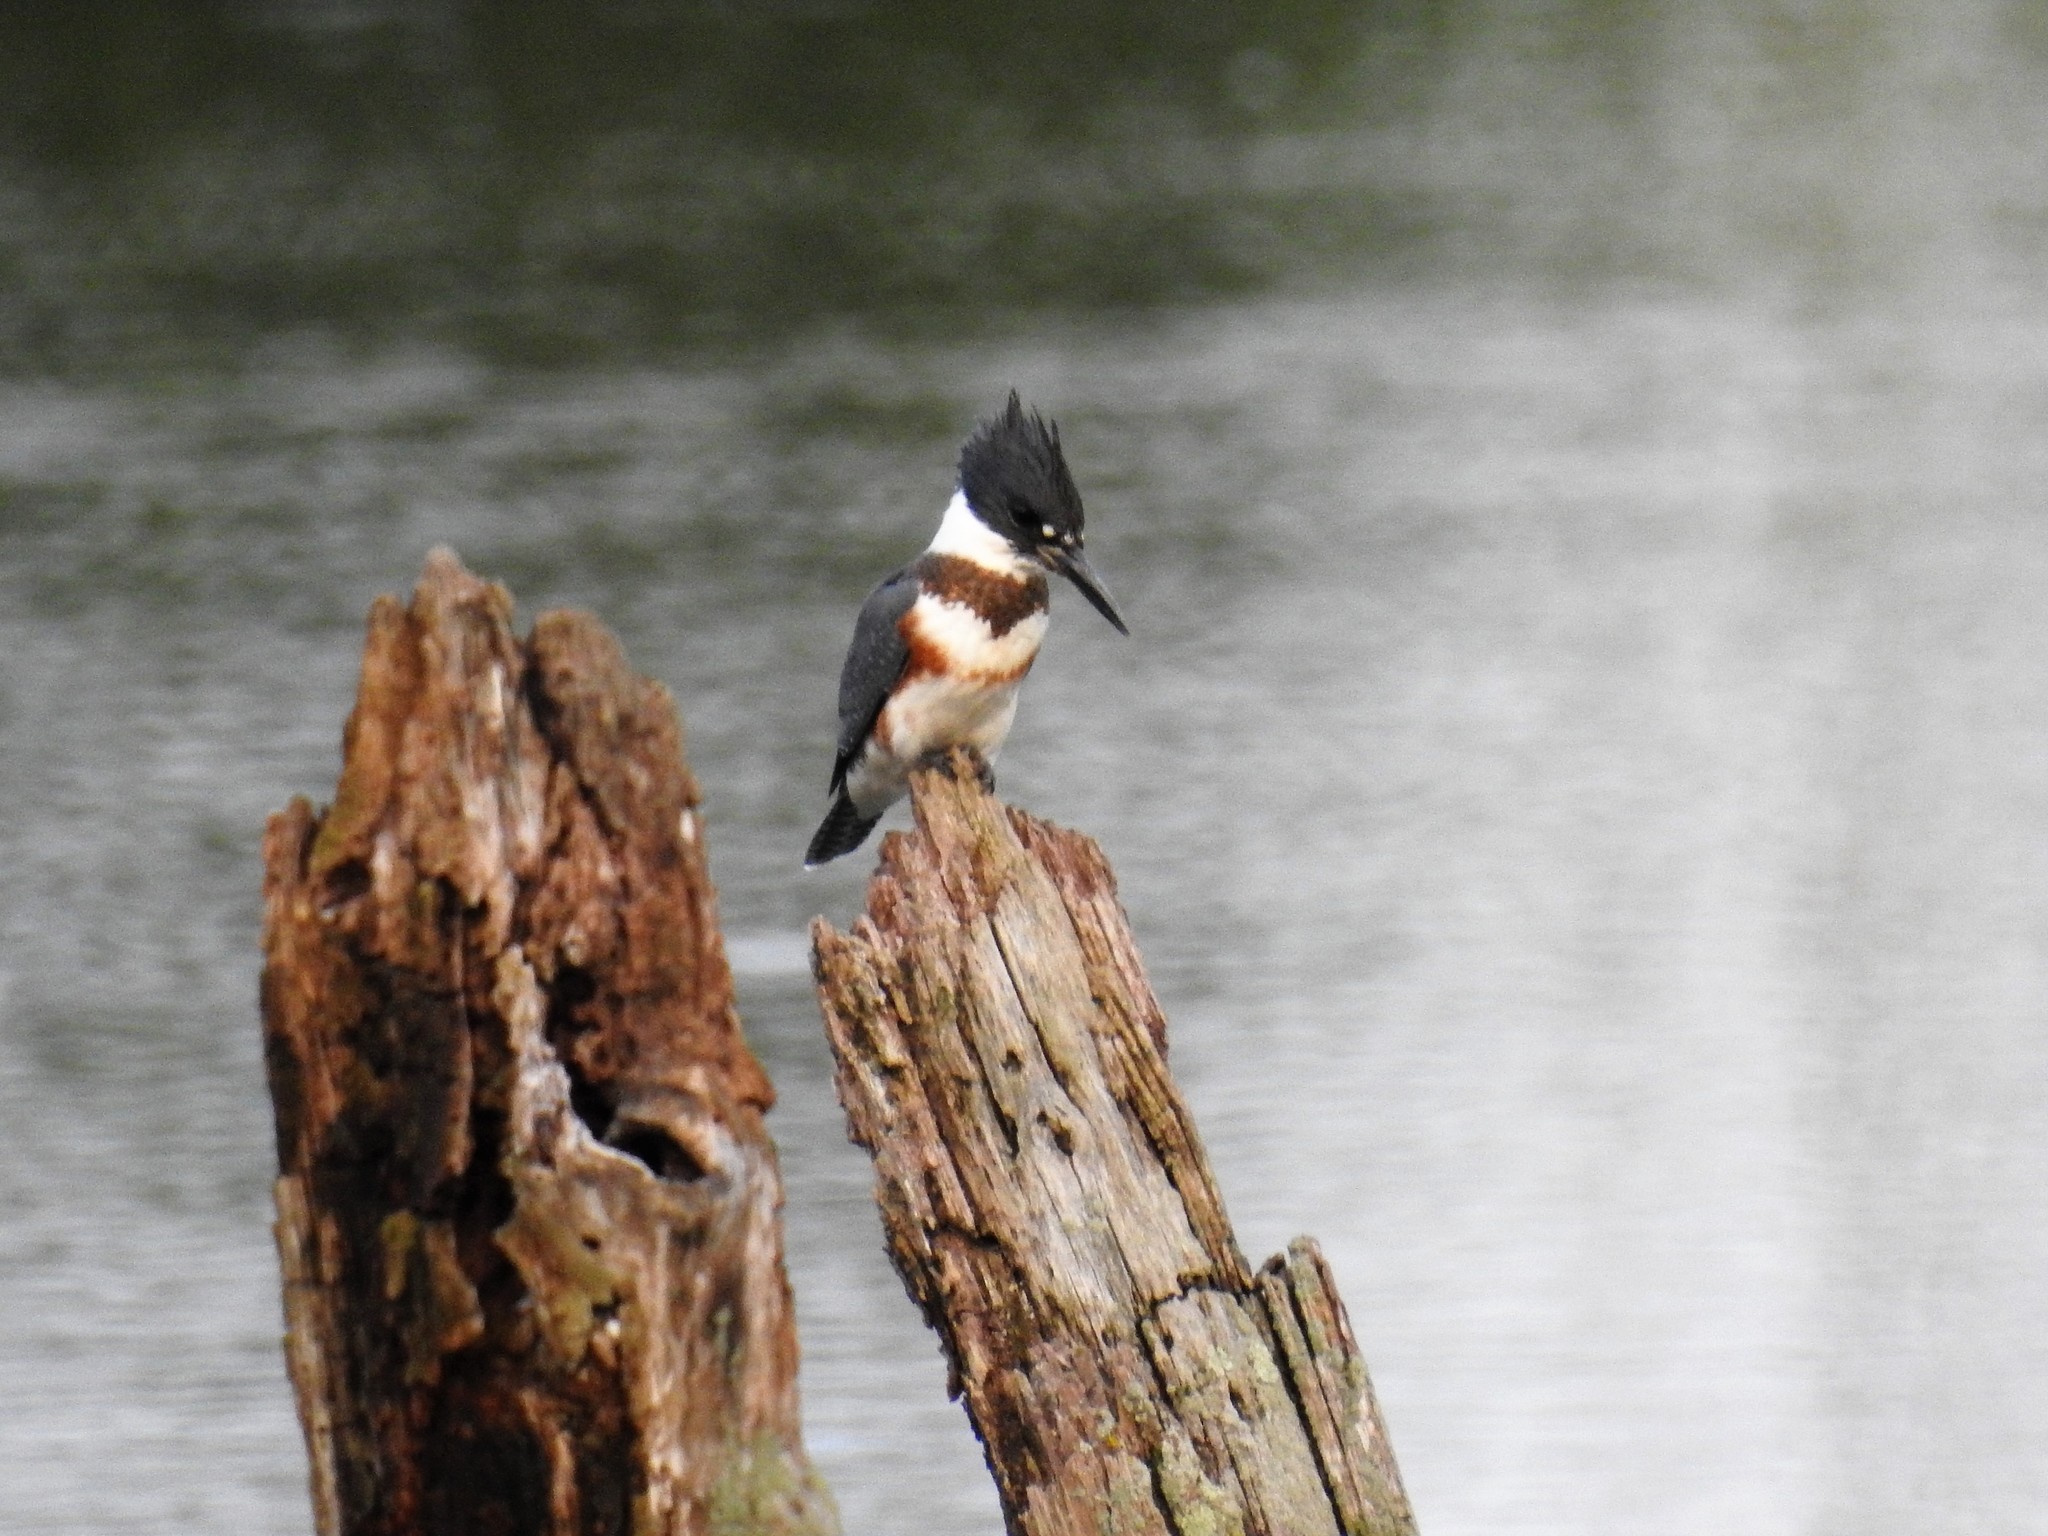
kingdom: Animalia
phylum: Chordata
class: Aves
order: Coraciiformes
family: Alcedinidae
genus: Megaceryle
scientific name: Megaceryle alcyon
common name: Belted kingfisher
